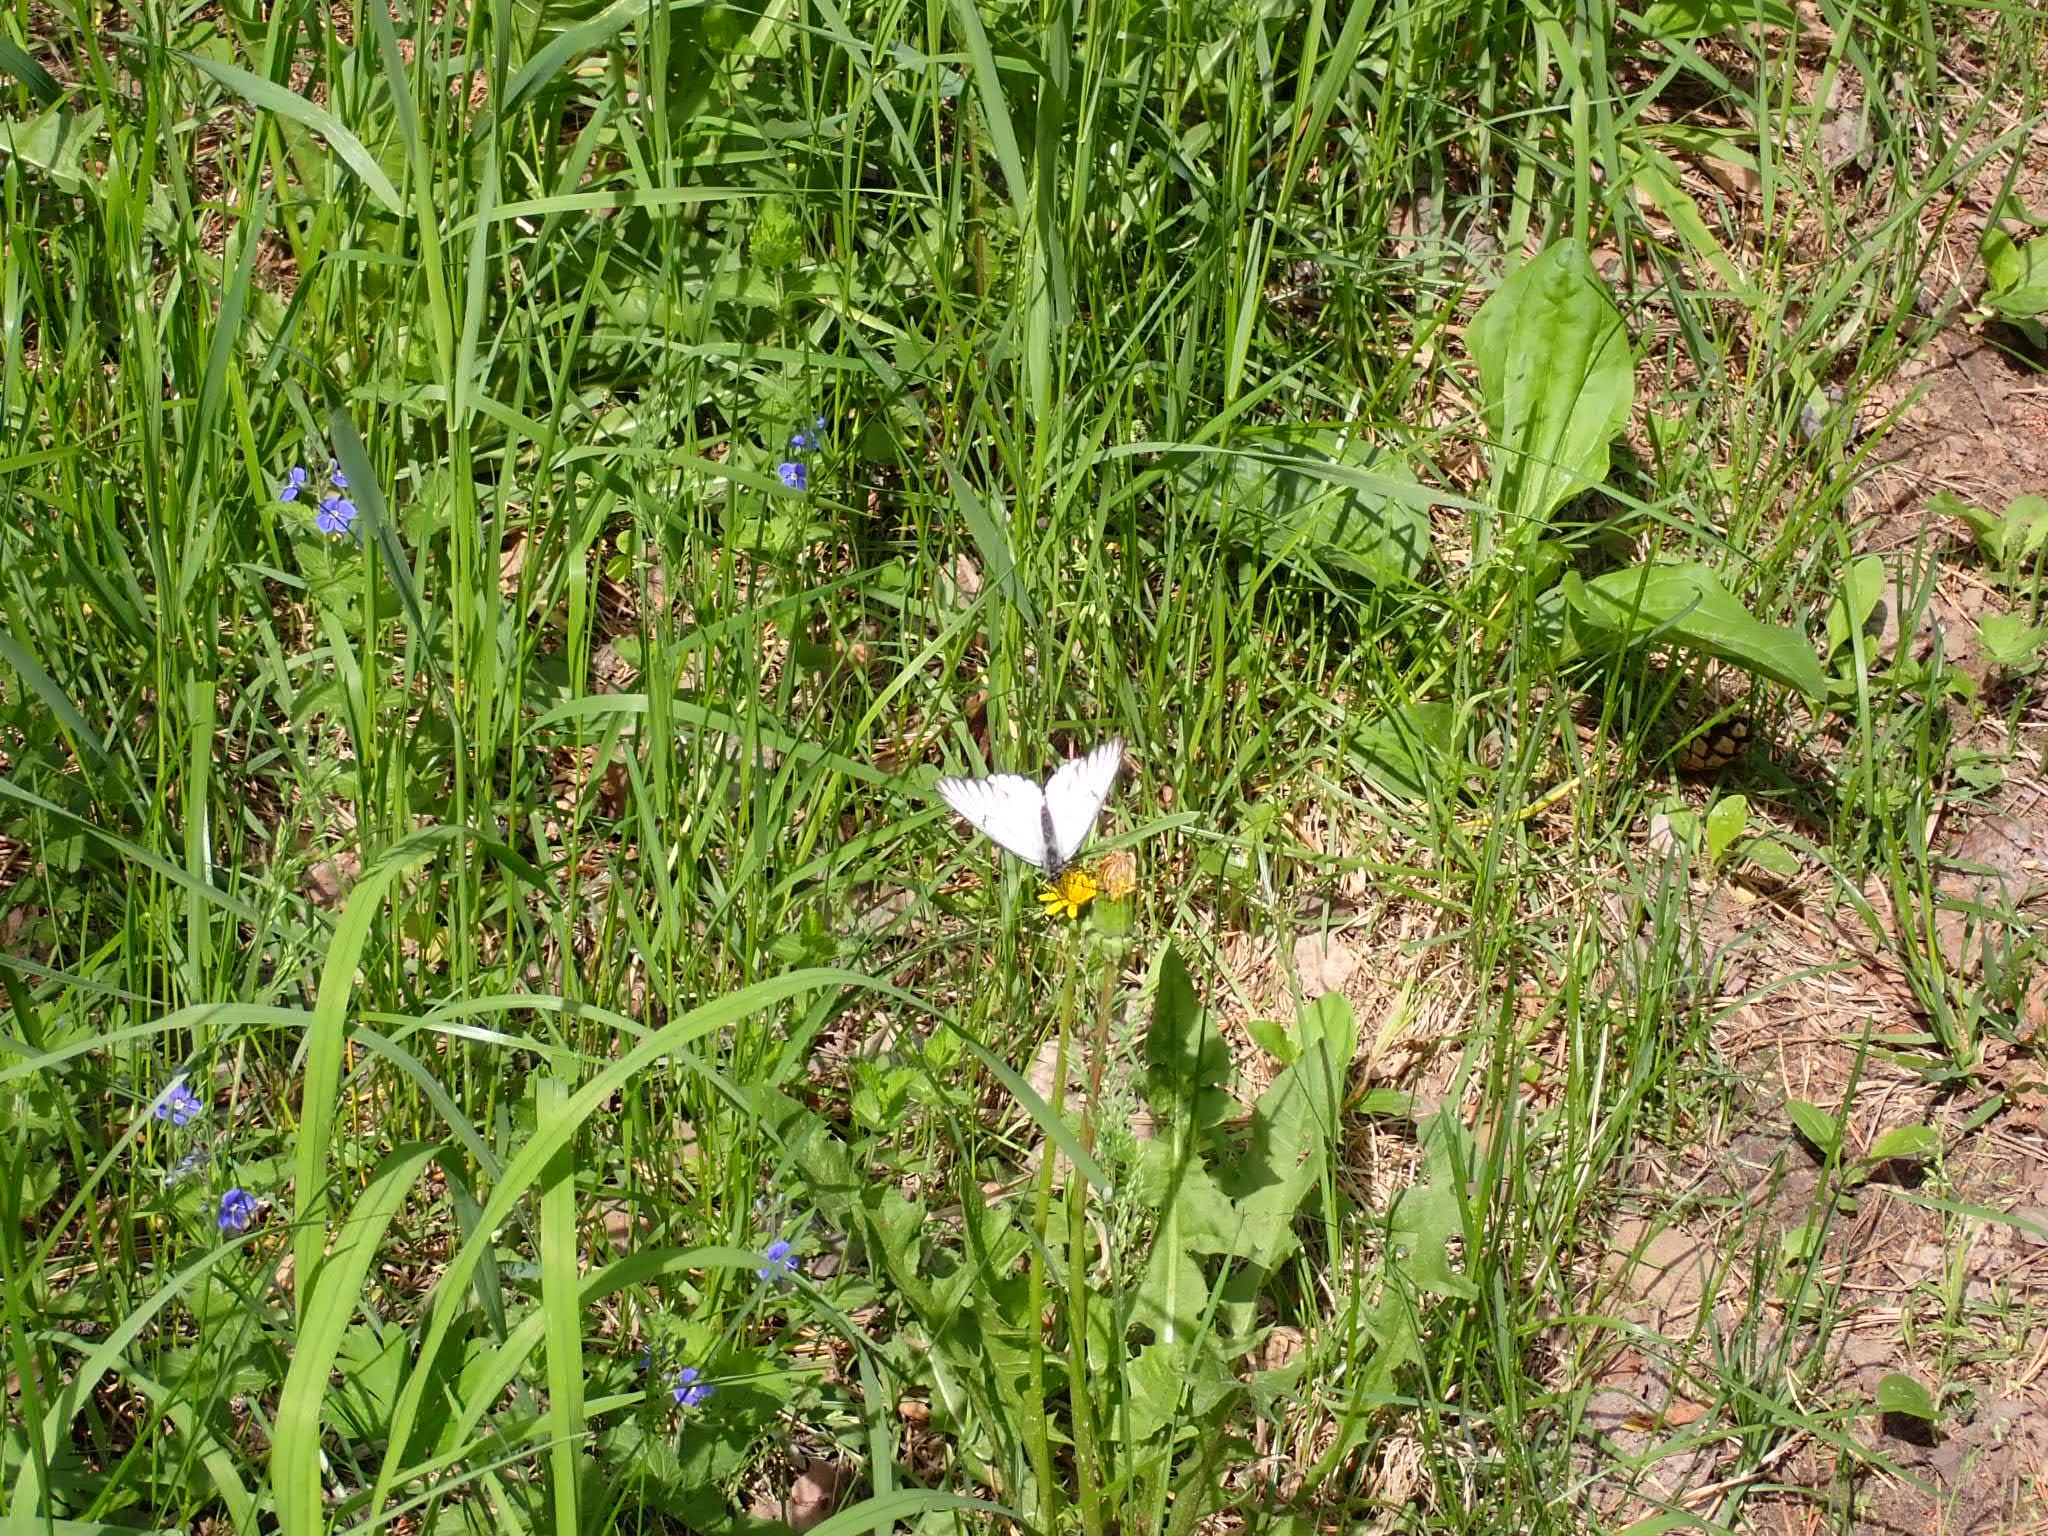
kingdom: Animalia
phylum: Arthropoda
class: Insecta
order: Lepidoptera
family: Pieridae
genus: Aporia
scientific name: Aporia crataegi
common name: Black-veined white
